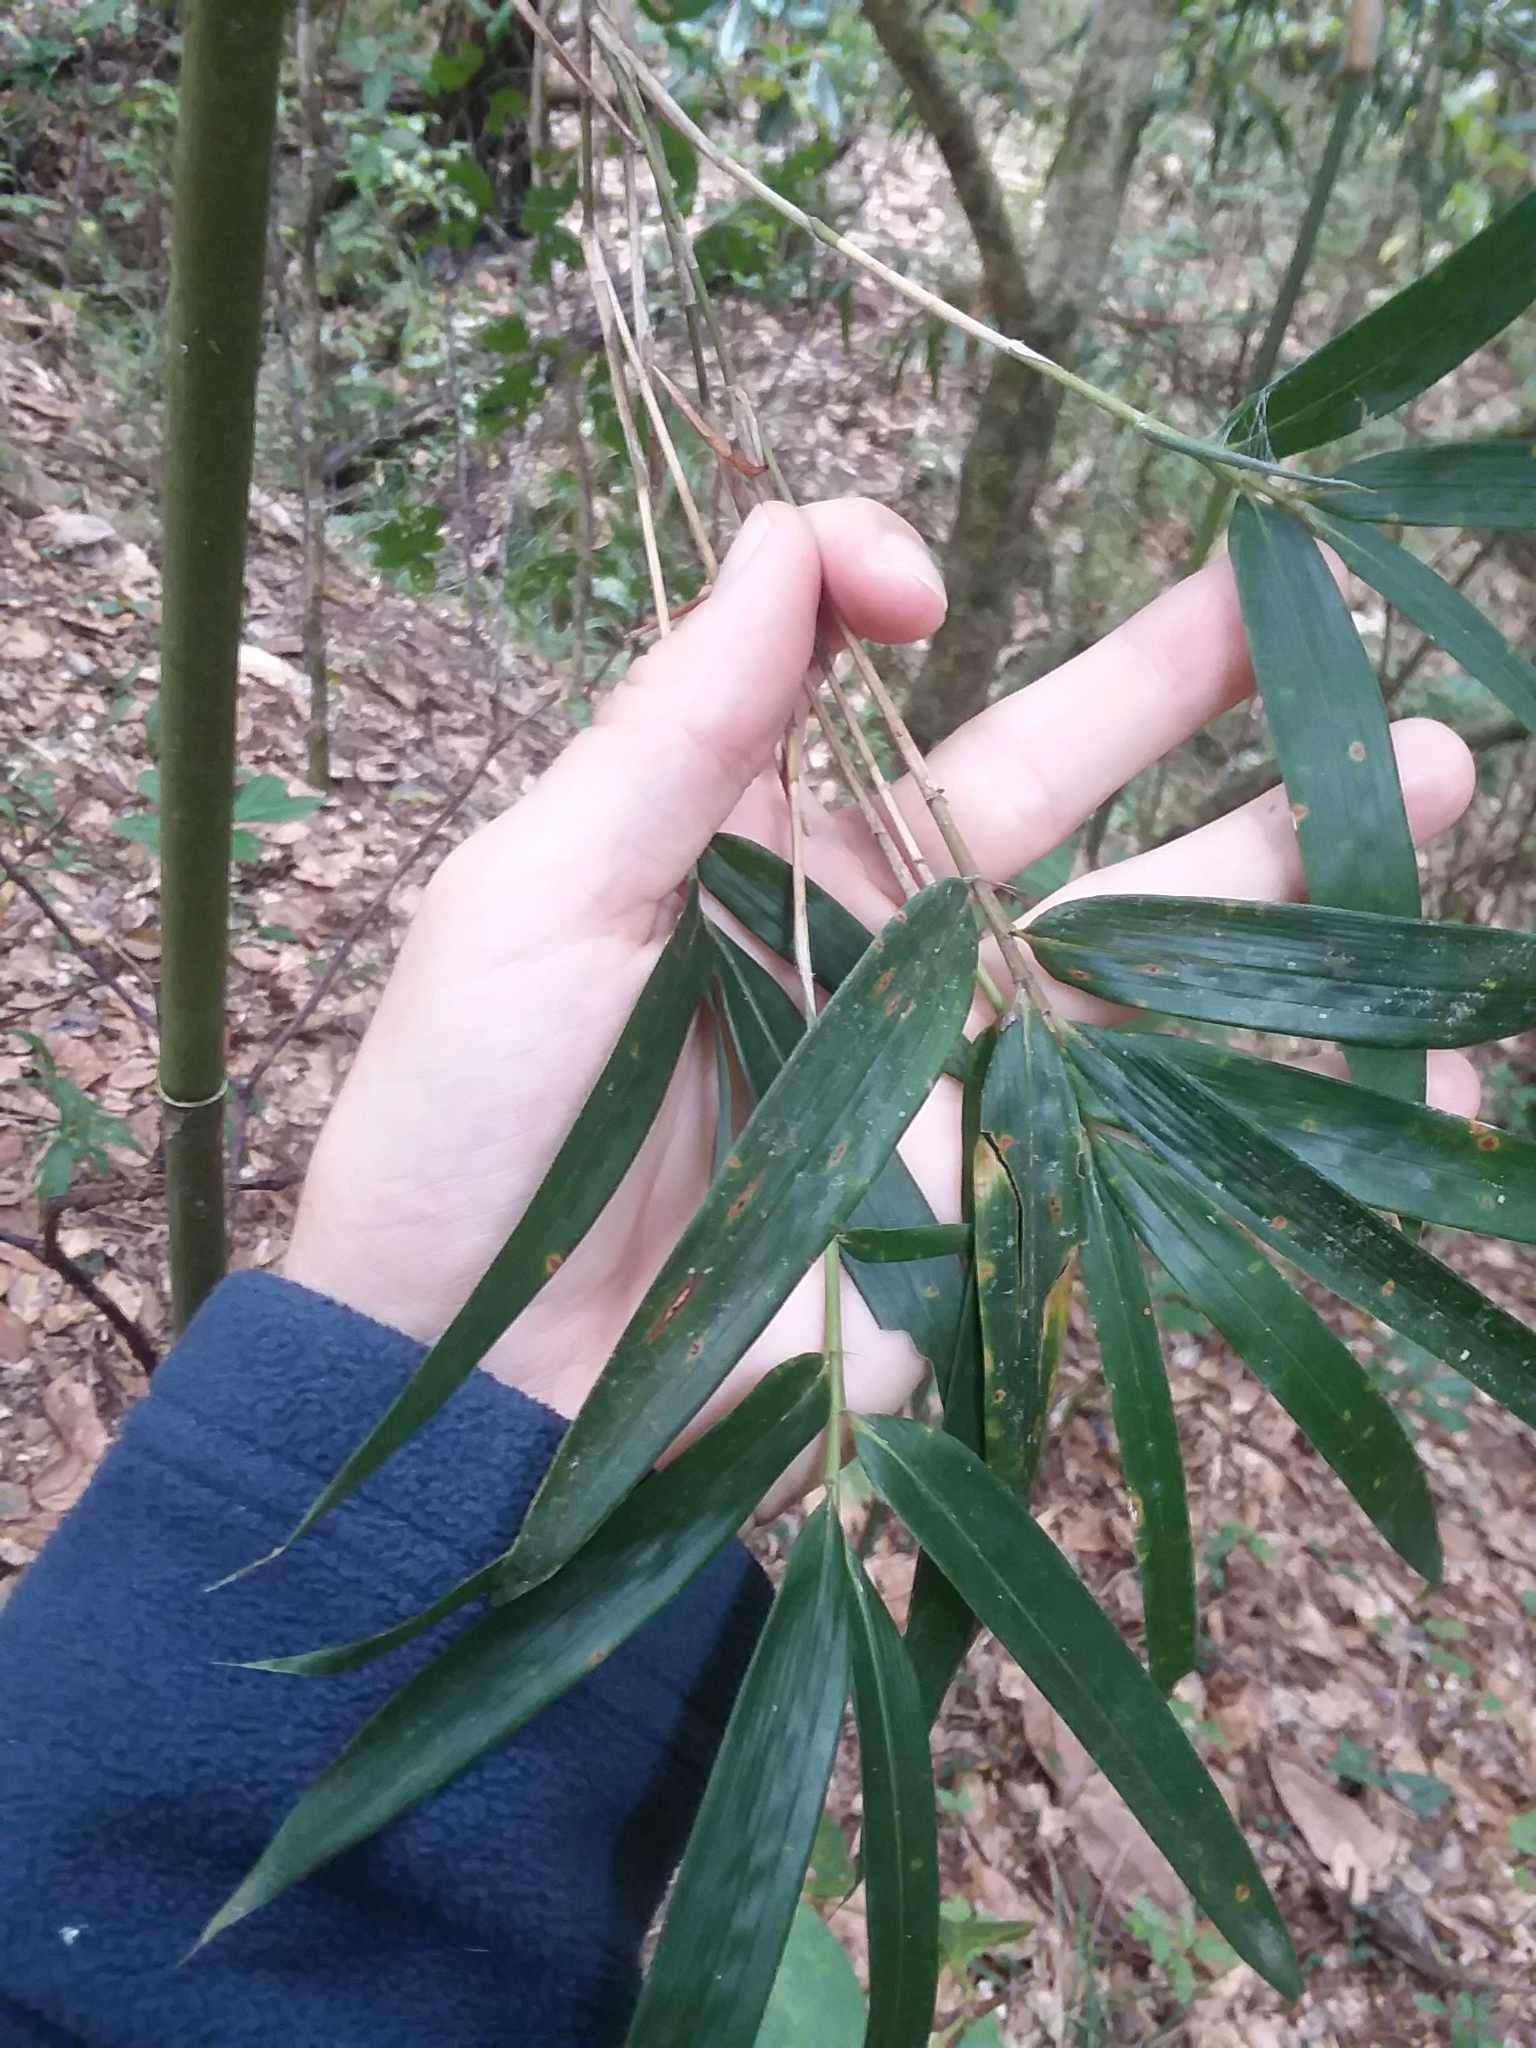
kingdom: Plantae
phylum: Tracheophyta
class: Liliopsida
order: Poales
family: Poaceae
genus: Arundinaria
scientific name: Arundinaria gigantea
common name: Giant cane
